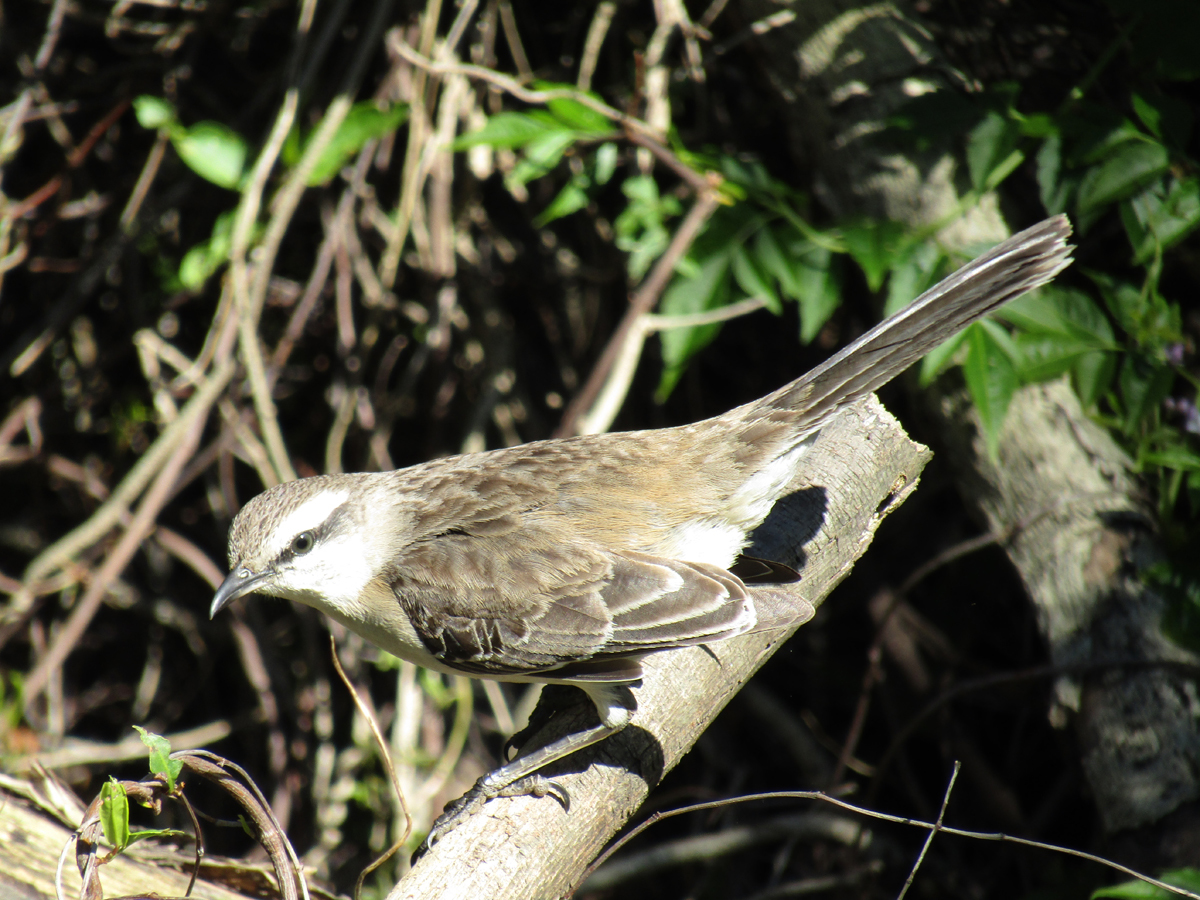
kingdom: Animalia
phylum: Chordata
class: Aves
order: Passeriformes
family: Mimidae
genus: Mimus
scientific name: Mimus saturninus
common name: Chalk-browed mockingbird
